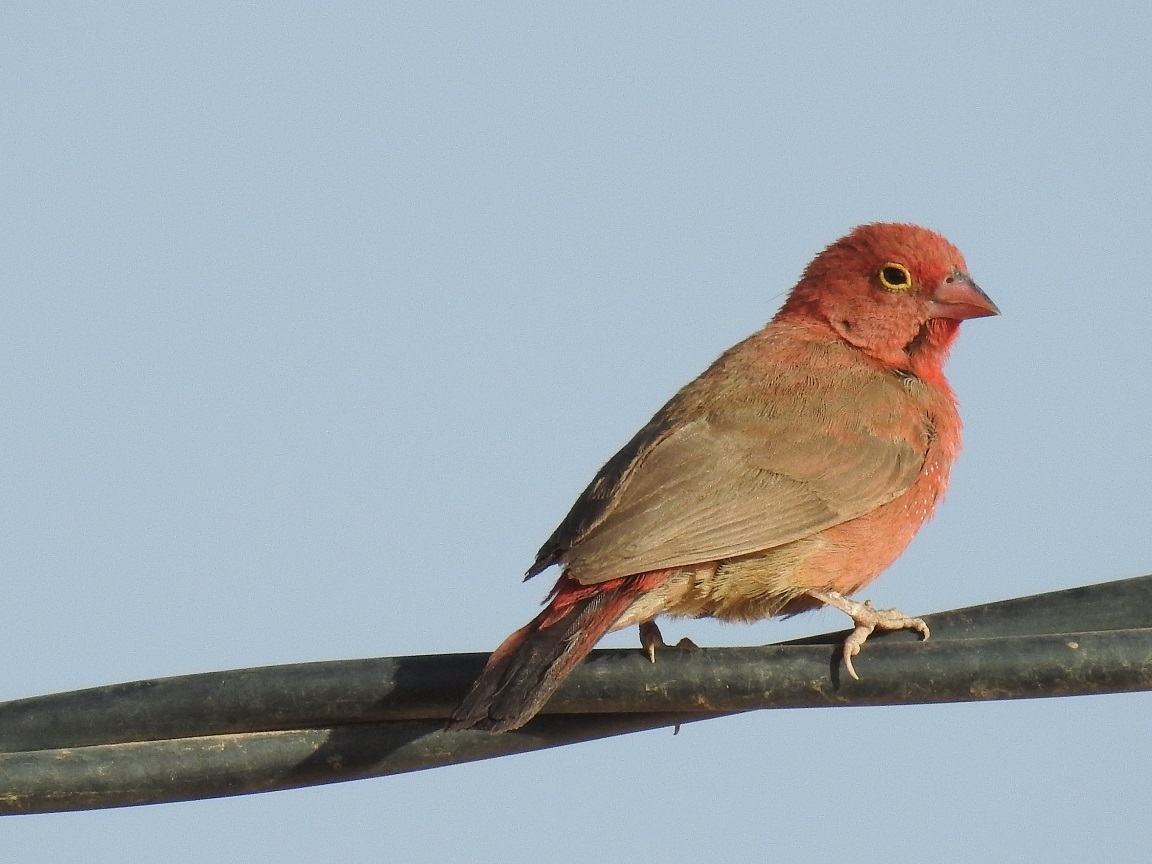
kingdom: Animalia
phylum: Chordata
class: Aves
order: Passeriformes
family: Estrildidae
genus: Lagonosticta
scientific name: Lagonosticta senegala
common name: Red-billed firefinch
